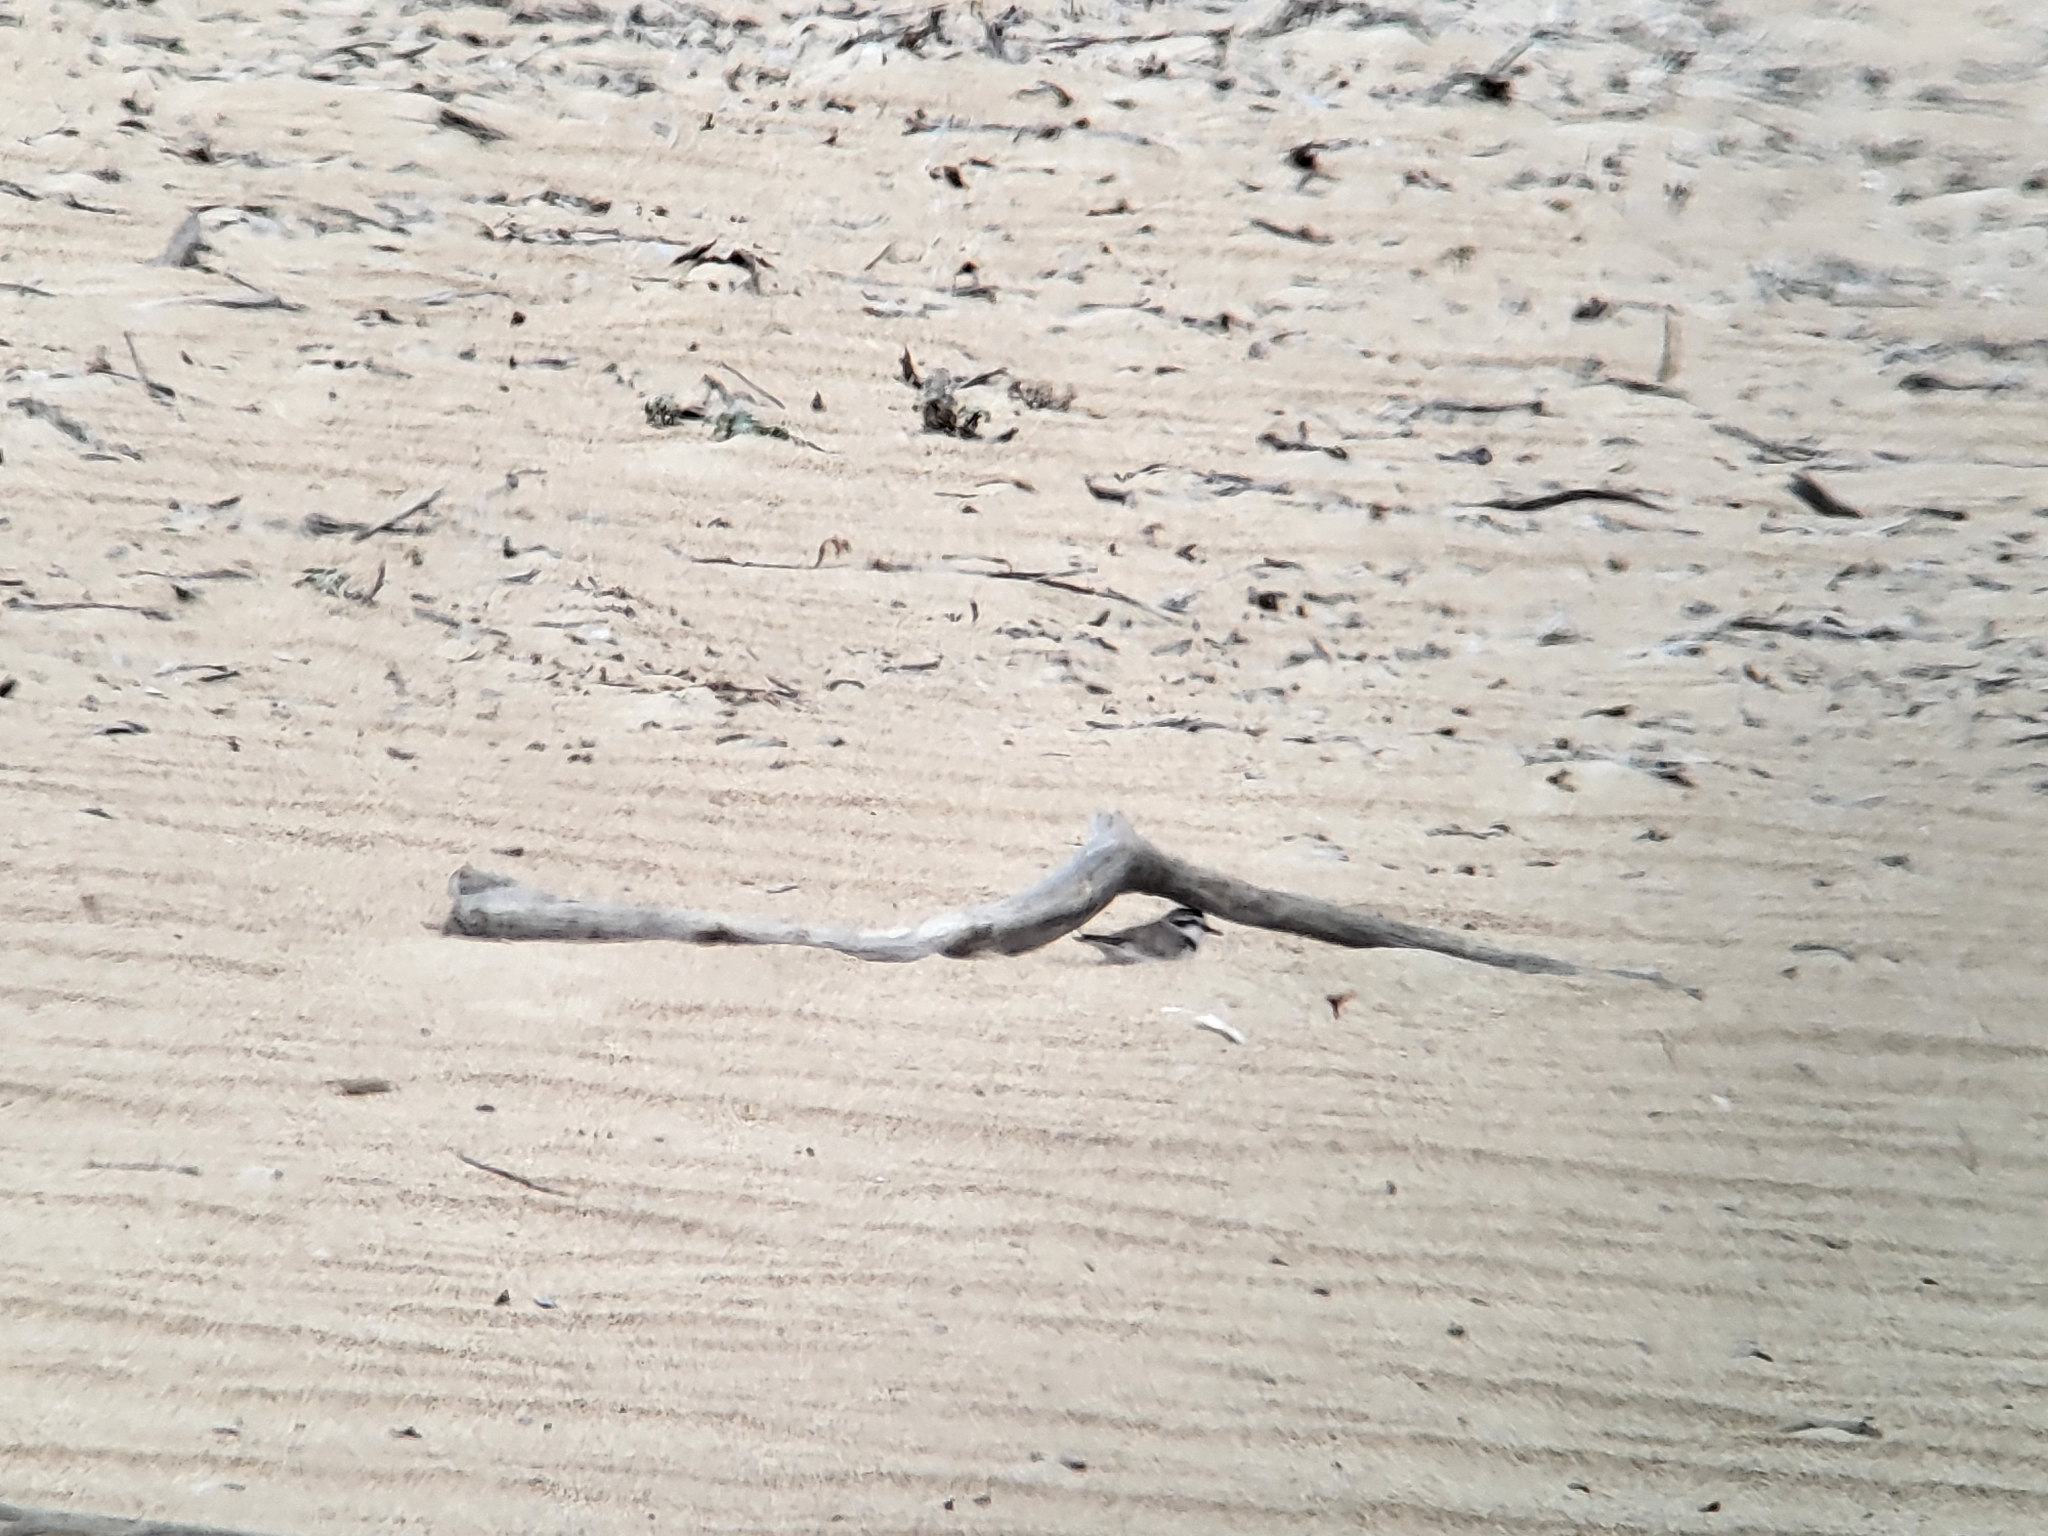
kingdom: Animalia
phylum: Chordata
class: Aves
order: Charadriiformes
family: Charadriidae
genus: Anarhynchus
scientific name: Anarhynchus
